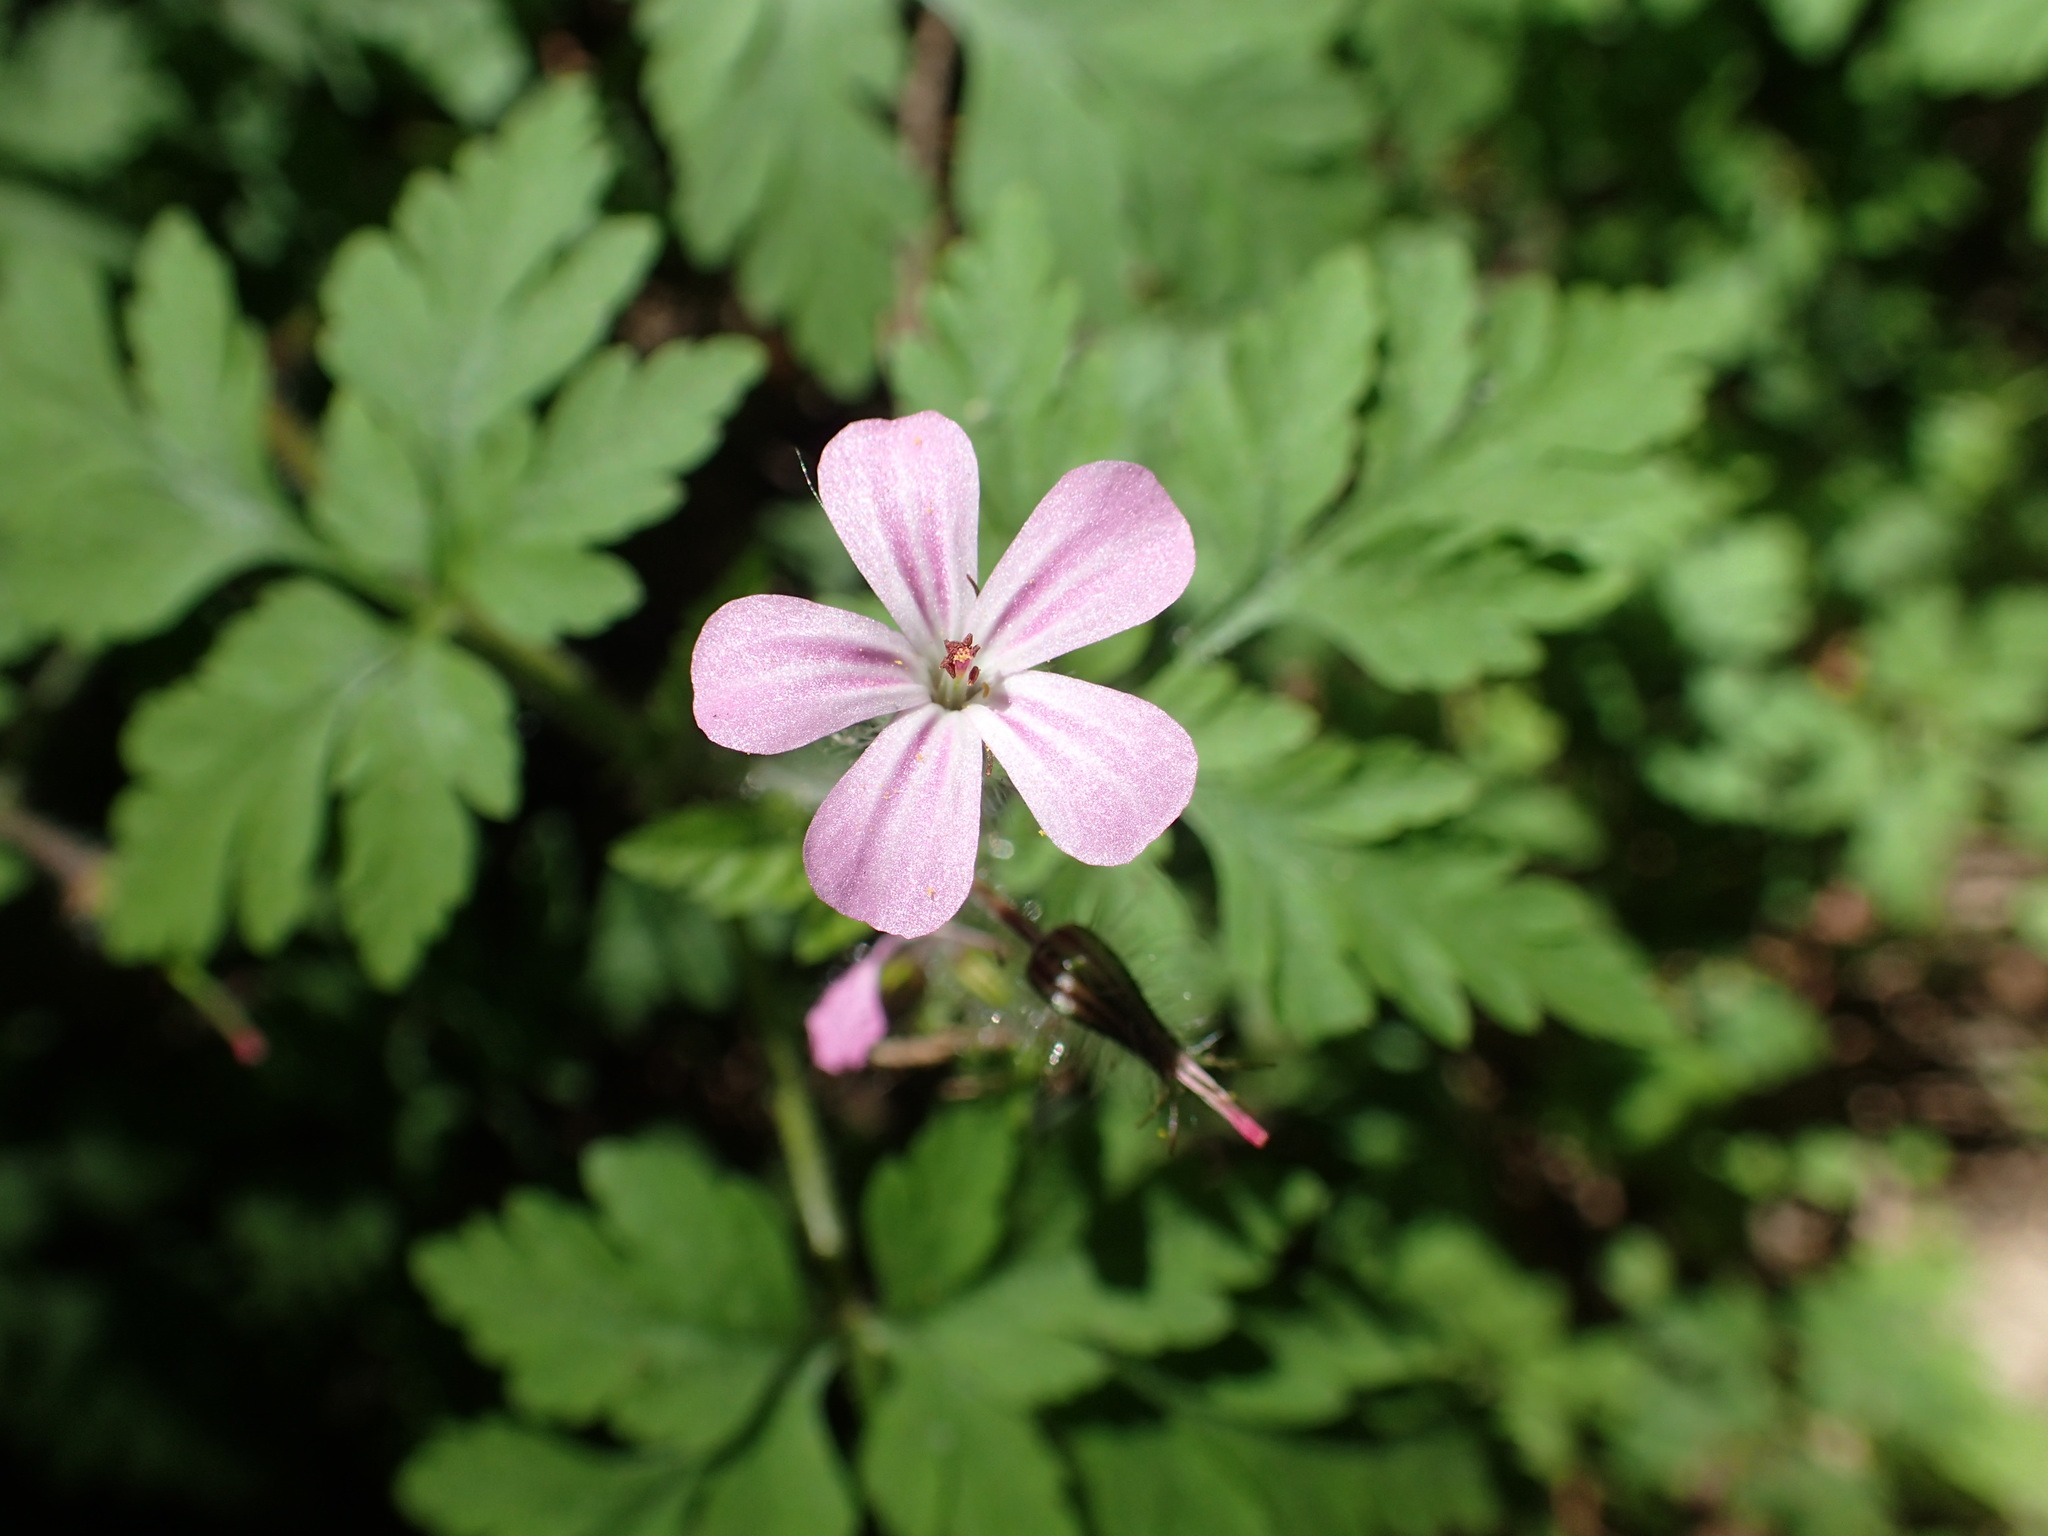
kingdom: Plantae
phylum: Tracheophyta
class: Magnoliopsida
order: Geraniales
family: Geraniaceae
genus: Geranium
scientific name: Geranium robertianum
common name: Herb-robert
